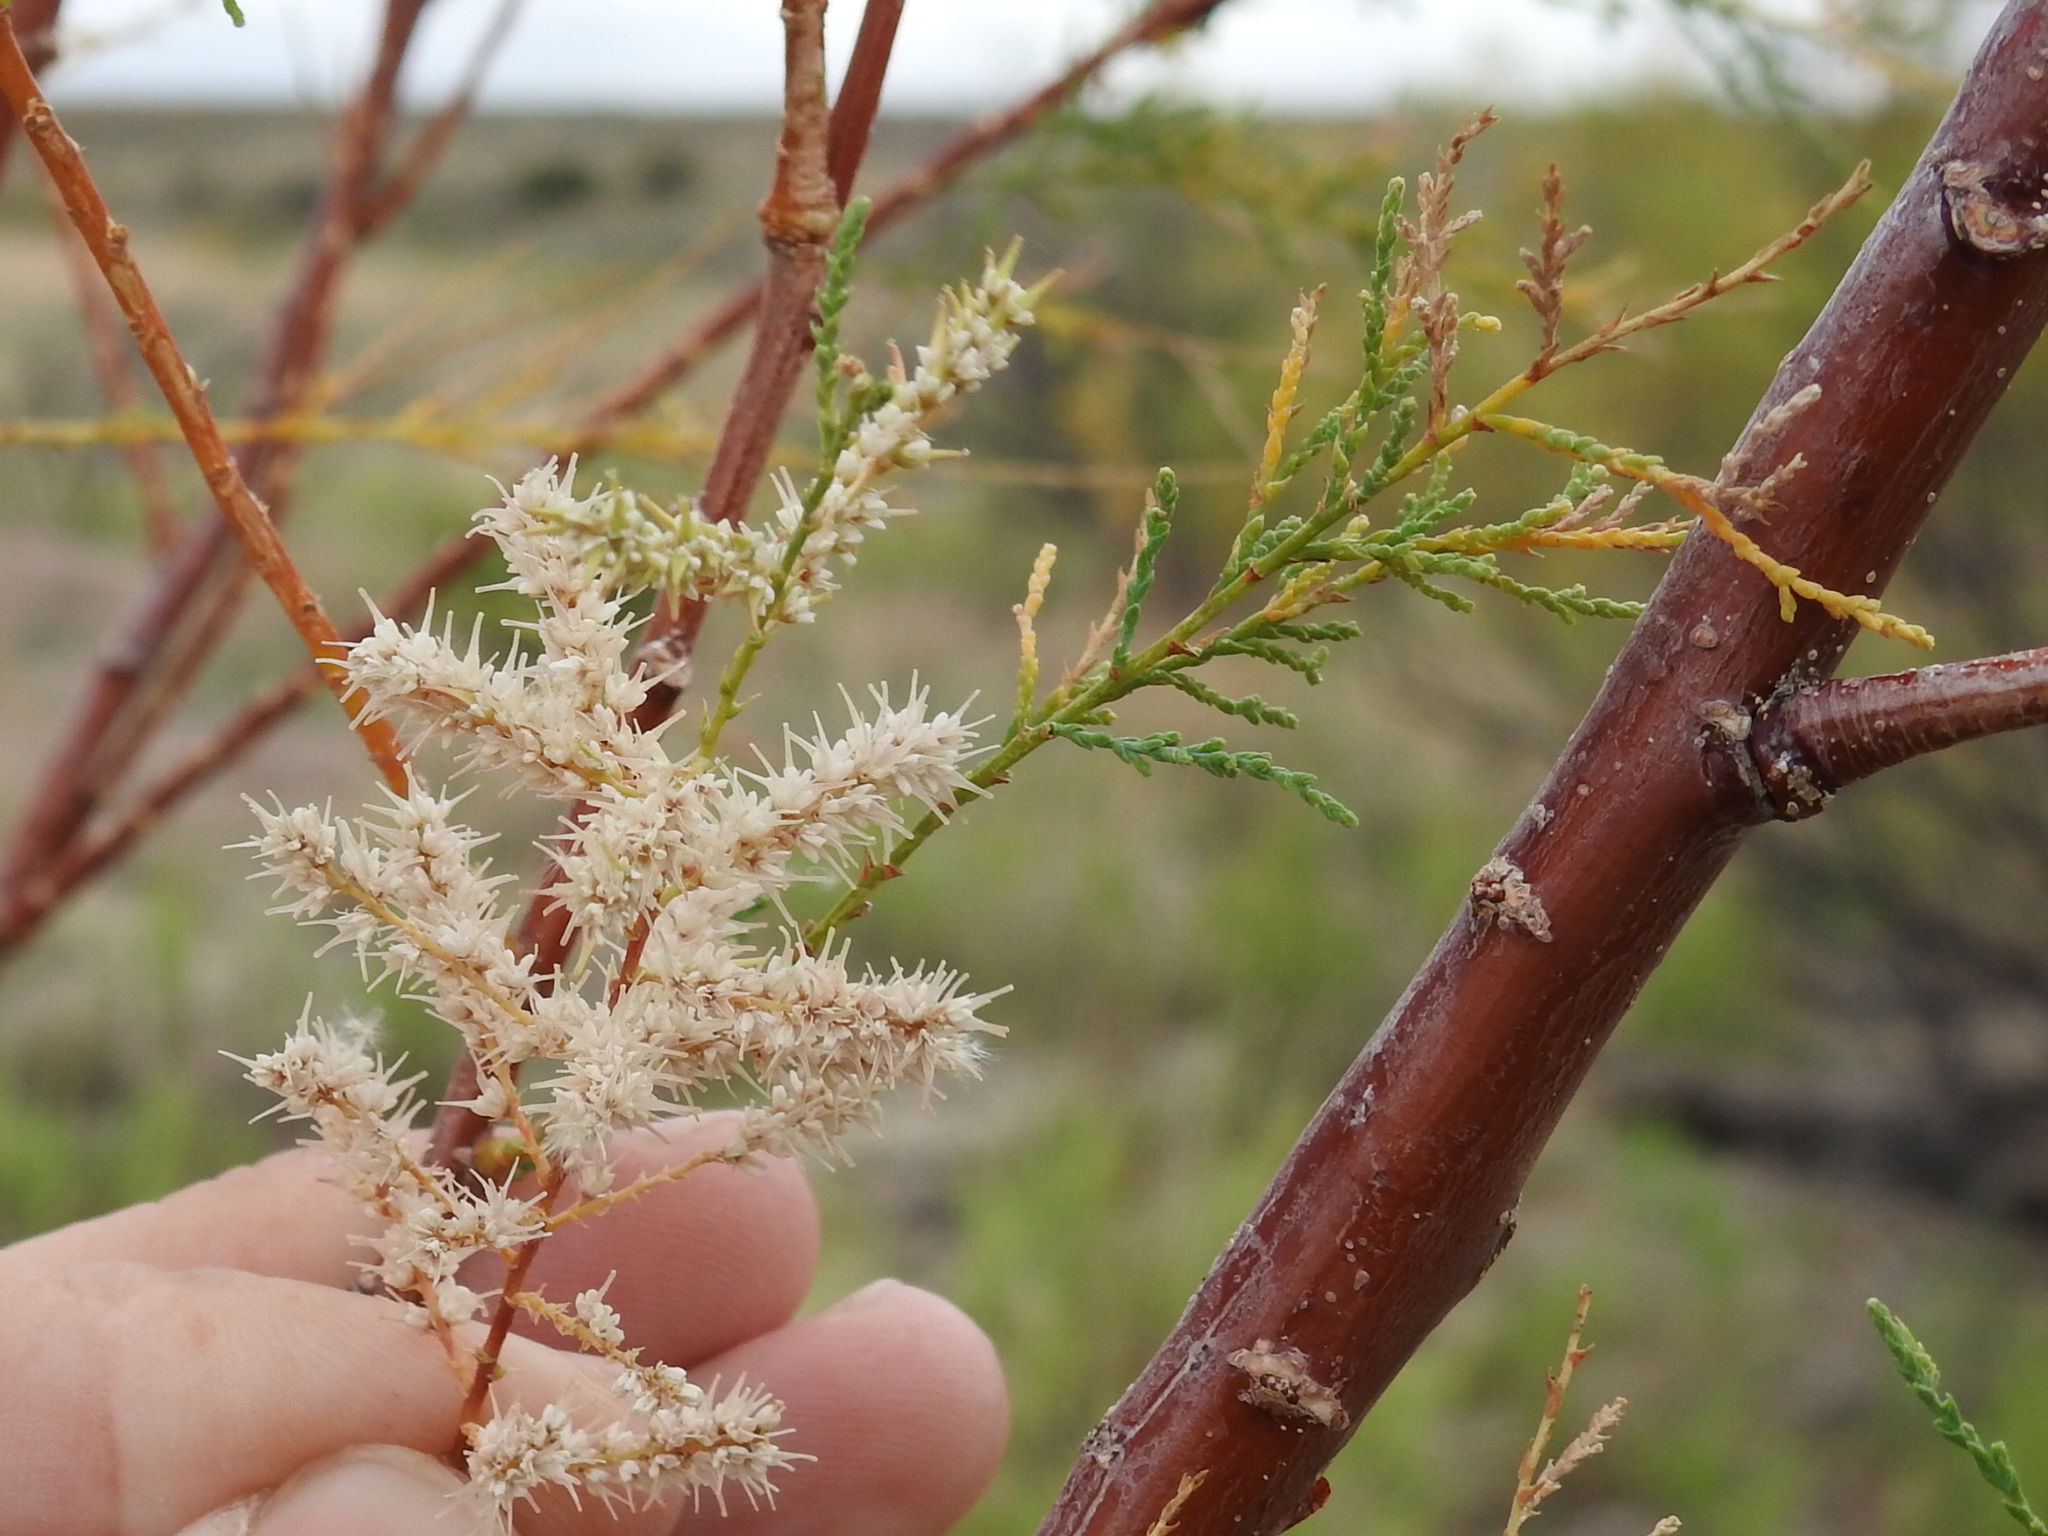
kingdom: Plantae
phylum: Tracheophyta
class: Magnoliopsida
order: Caryophyllales
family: Tamaricaceae
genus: Tamarix
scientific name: Tamarix
